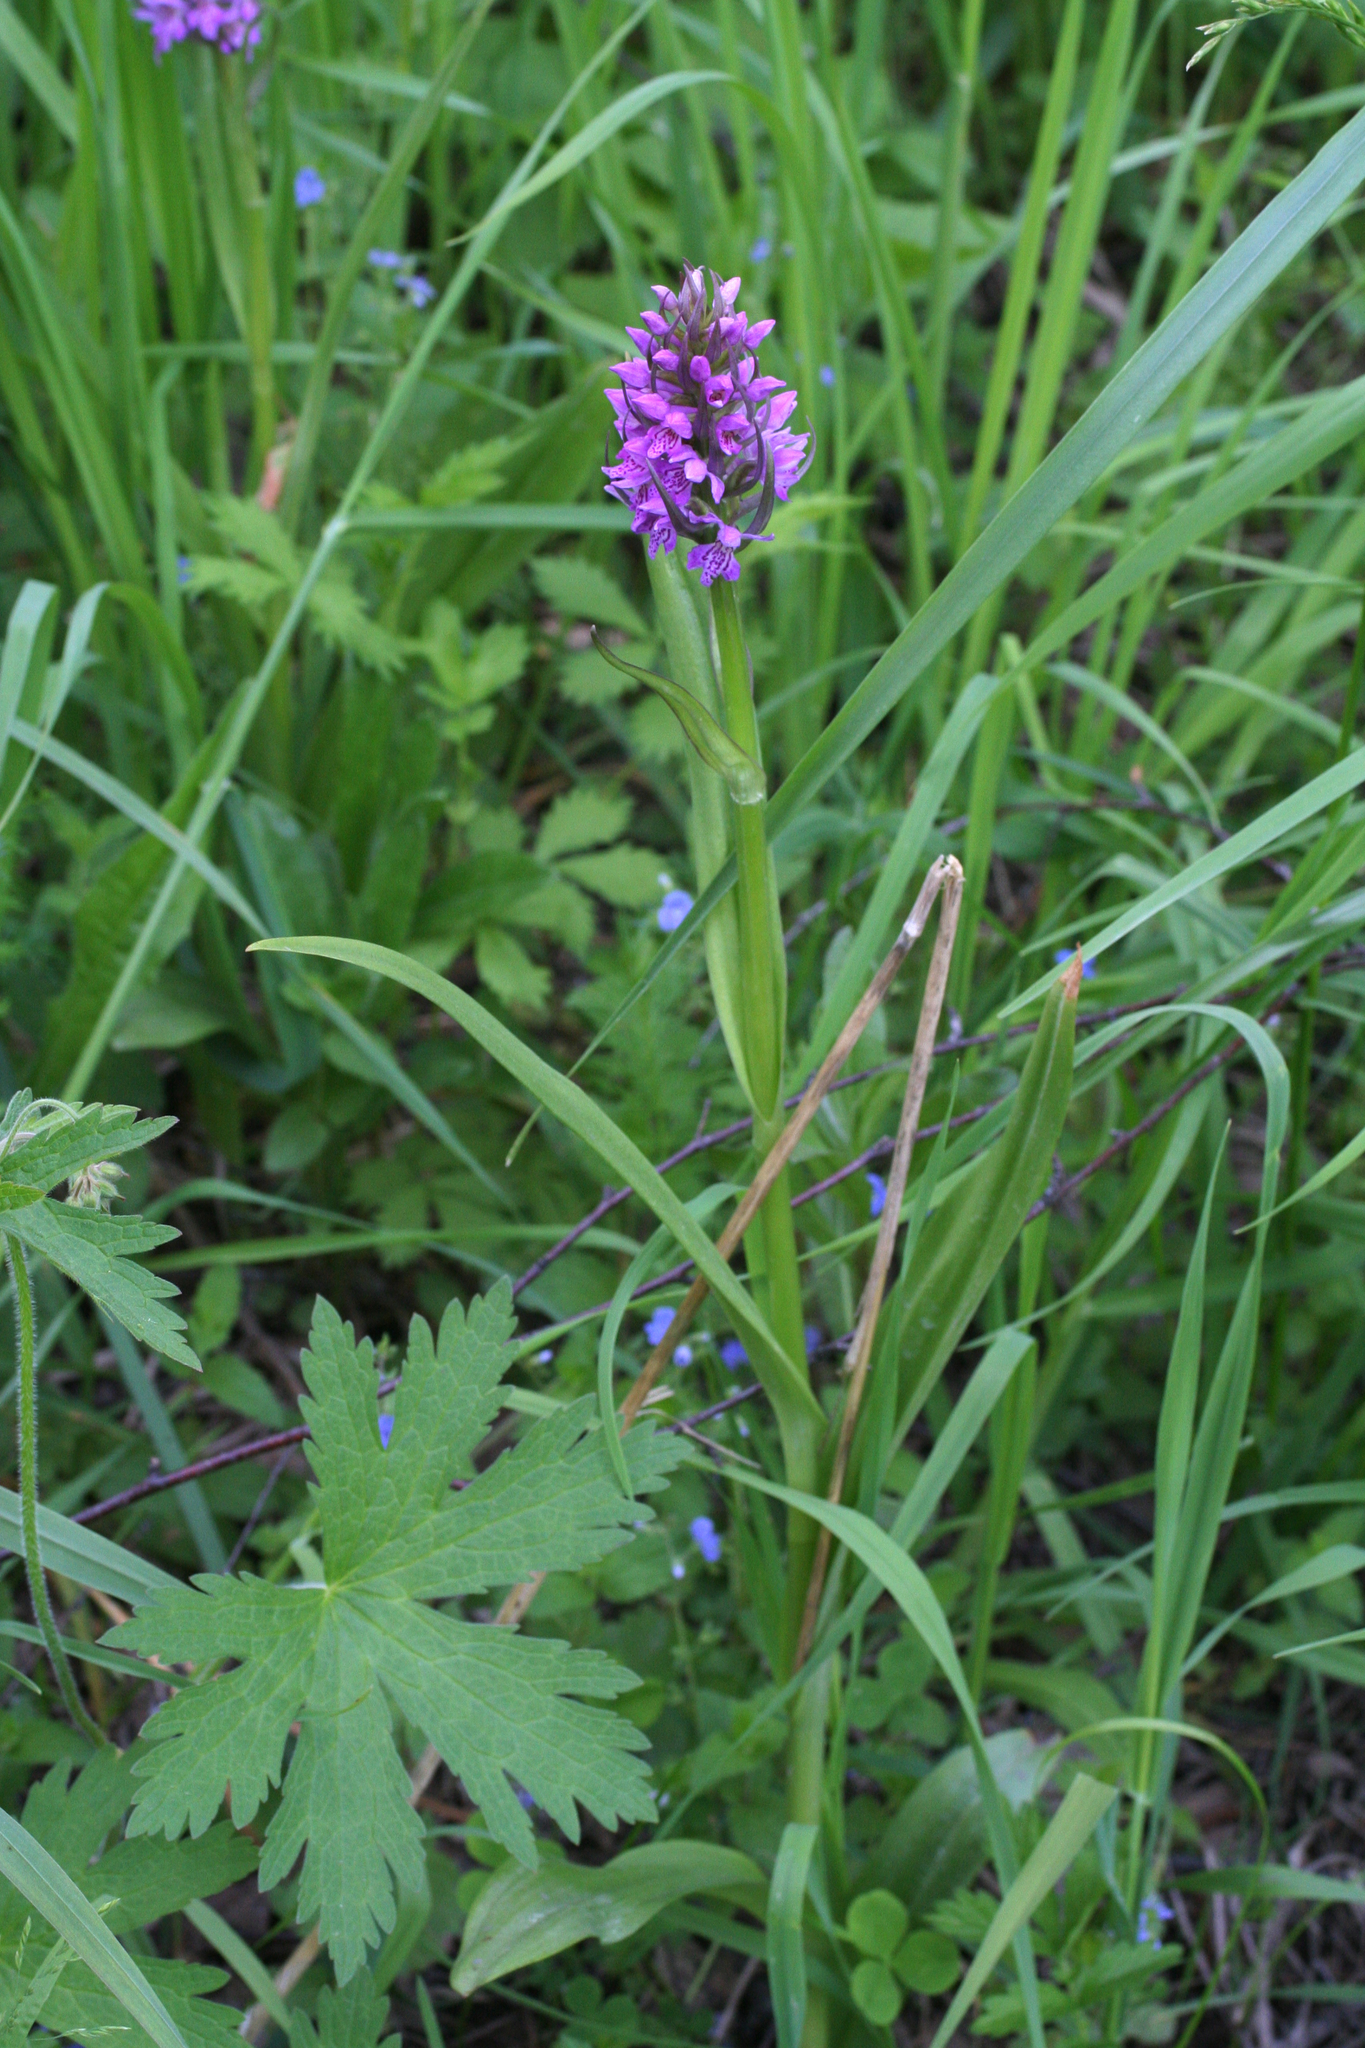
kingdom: Plantae
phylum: Tracheophyta
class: Liliopsida
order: Asparagales
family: Orchidaceae
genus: Dactylorhiza
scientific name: Dactylorhiza incarnata
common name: Early marsh-orchid
